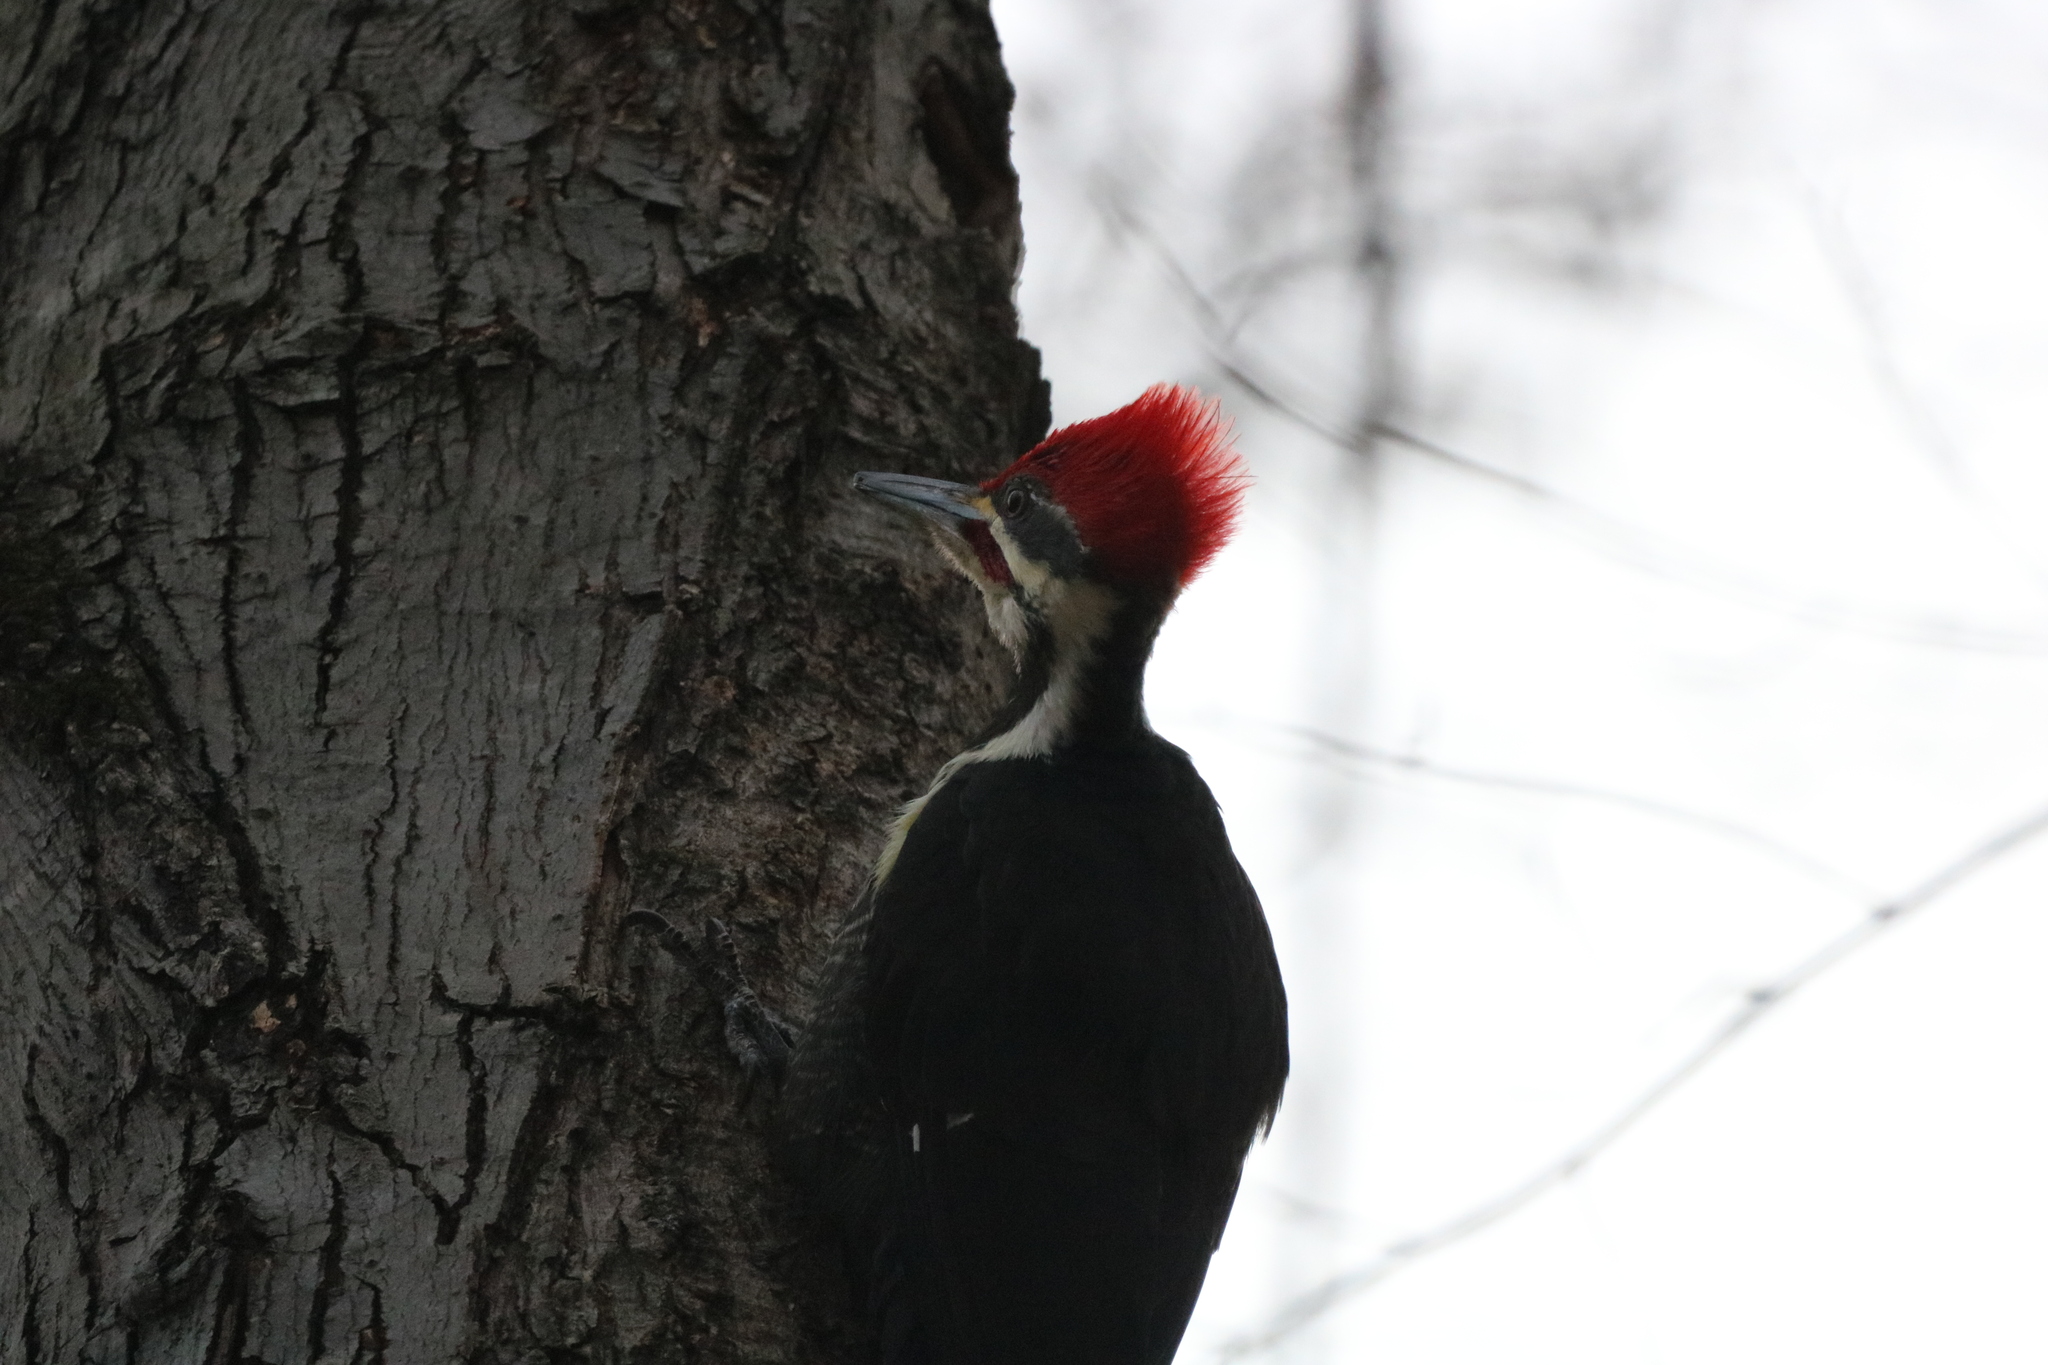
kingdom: Animalia
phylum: Chordata
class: Aves
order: Piciformes
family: Picidae
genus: Dryocopus
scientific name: Dryocopus pileatus
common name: Pileated woodpecker
